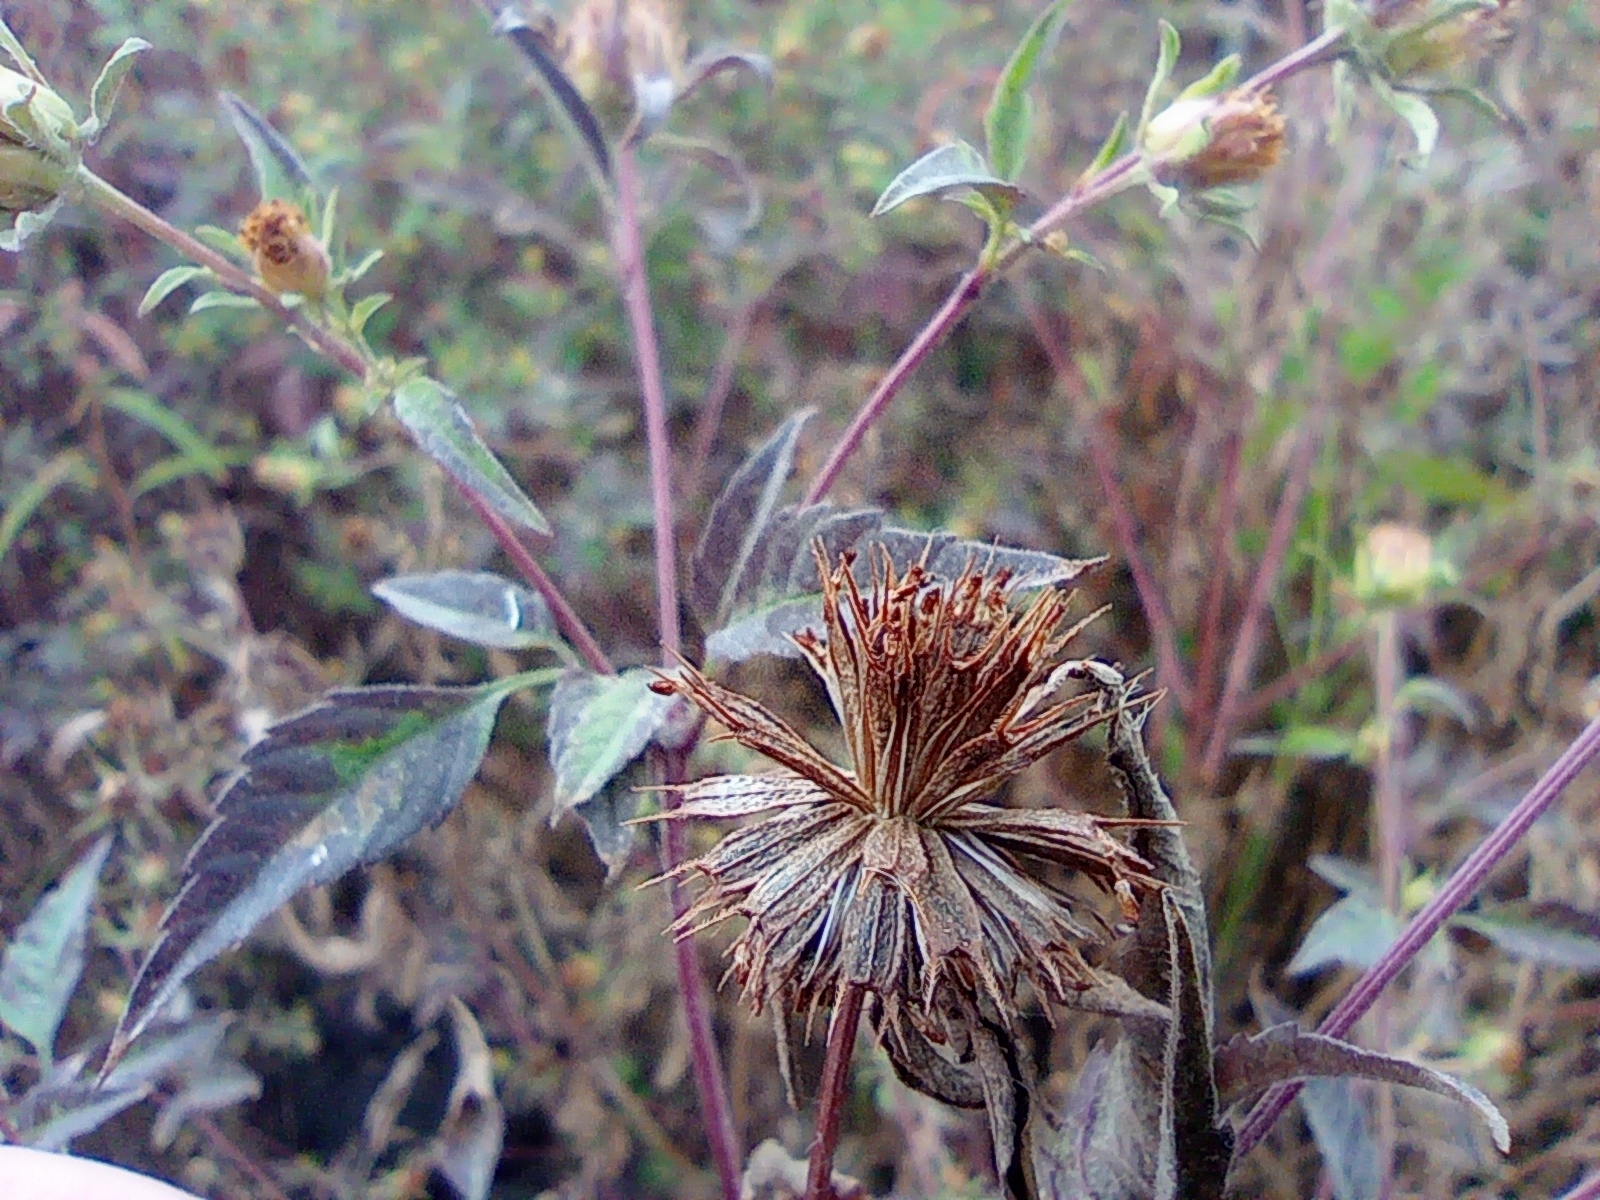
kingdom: Plantae
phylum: Tracheophyta
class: Magnoliopsida
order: Asterales
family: Asteraceae
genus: Bidens
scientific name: Bidens frondosa
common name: Beggarticks
